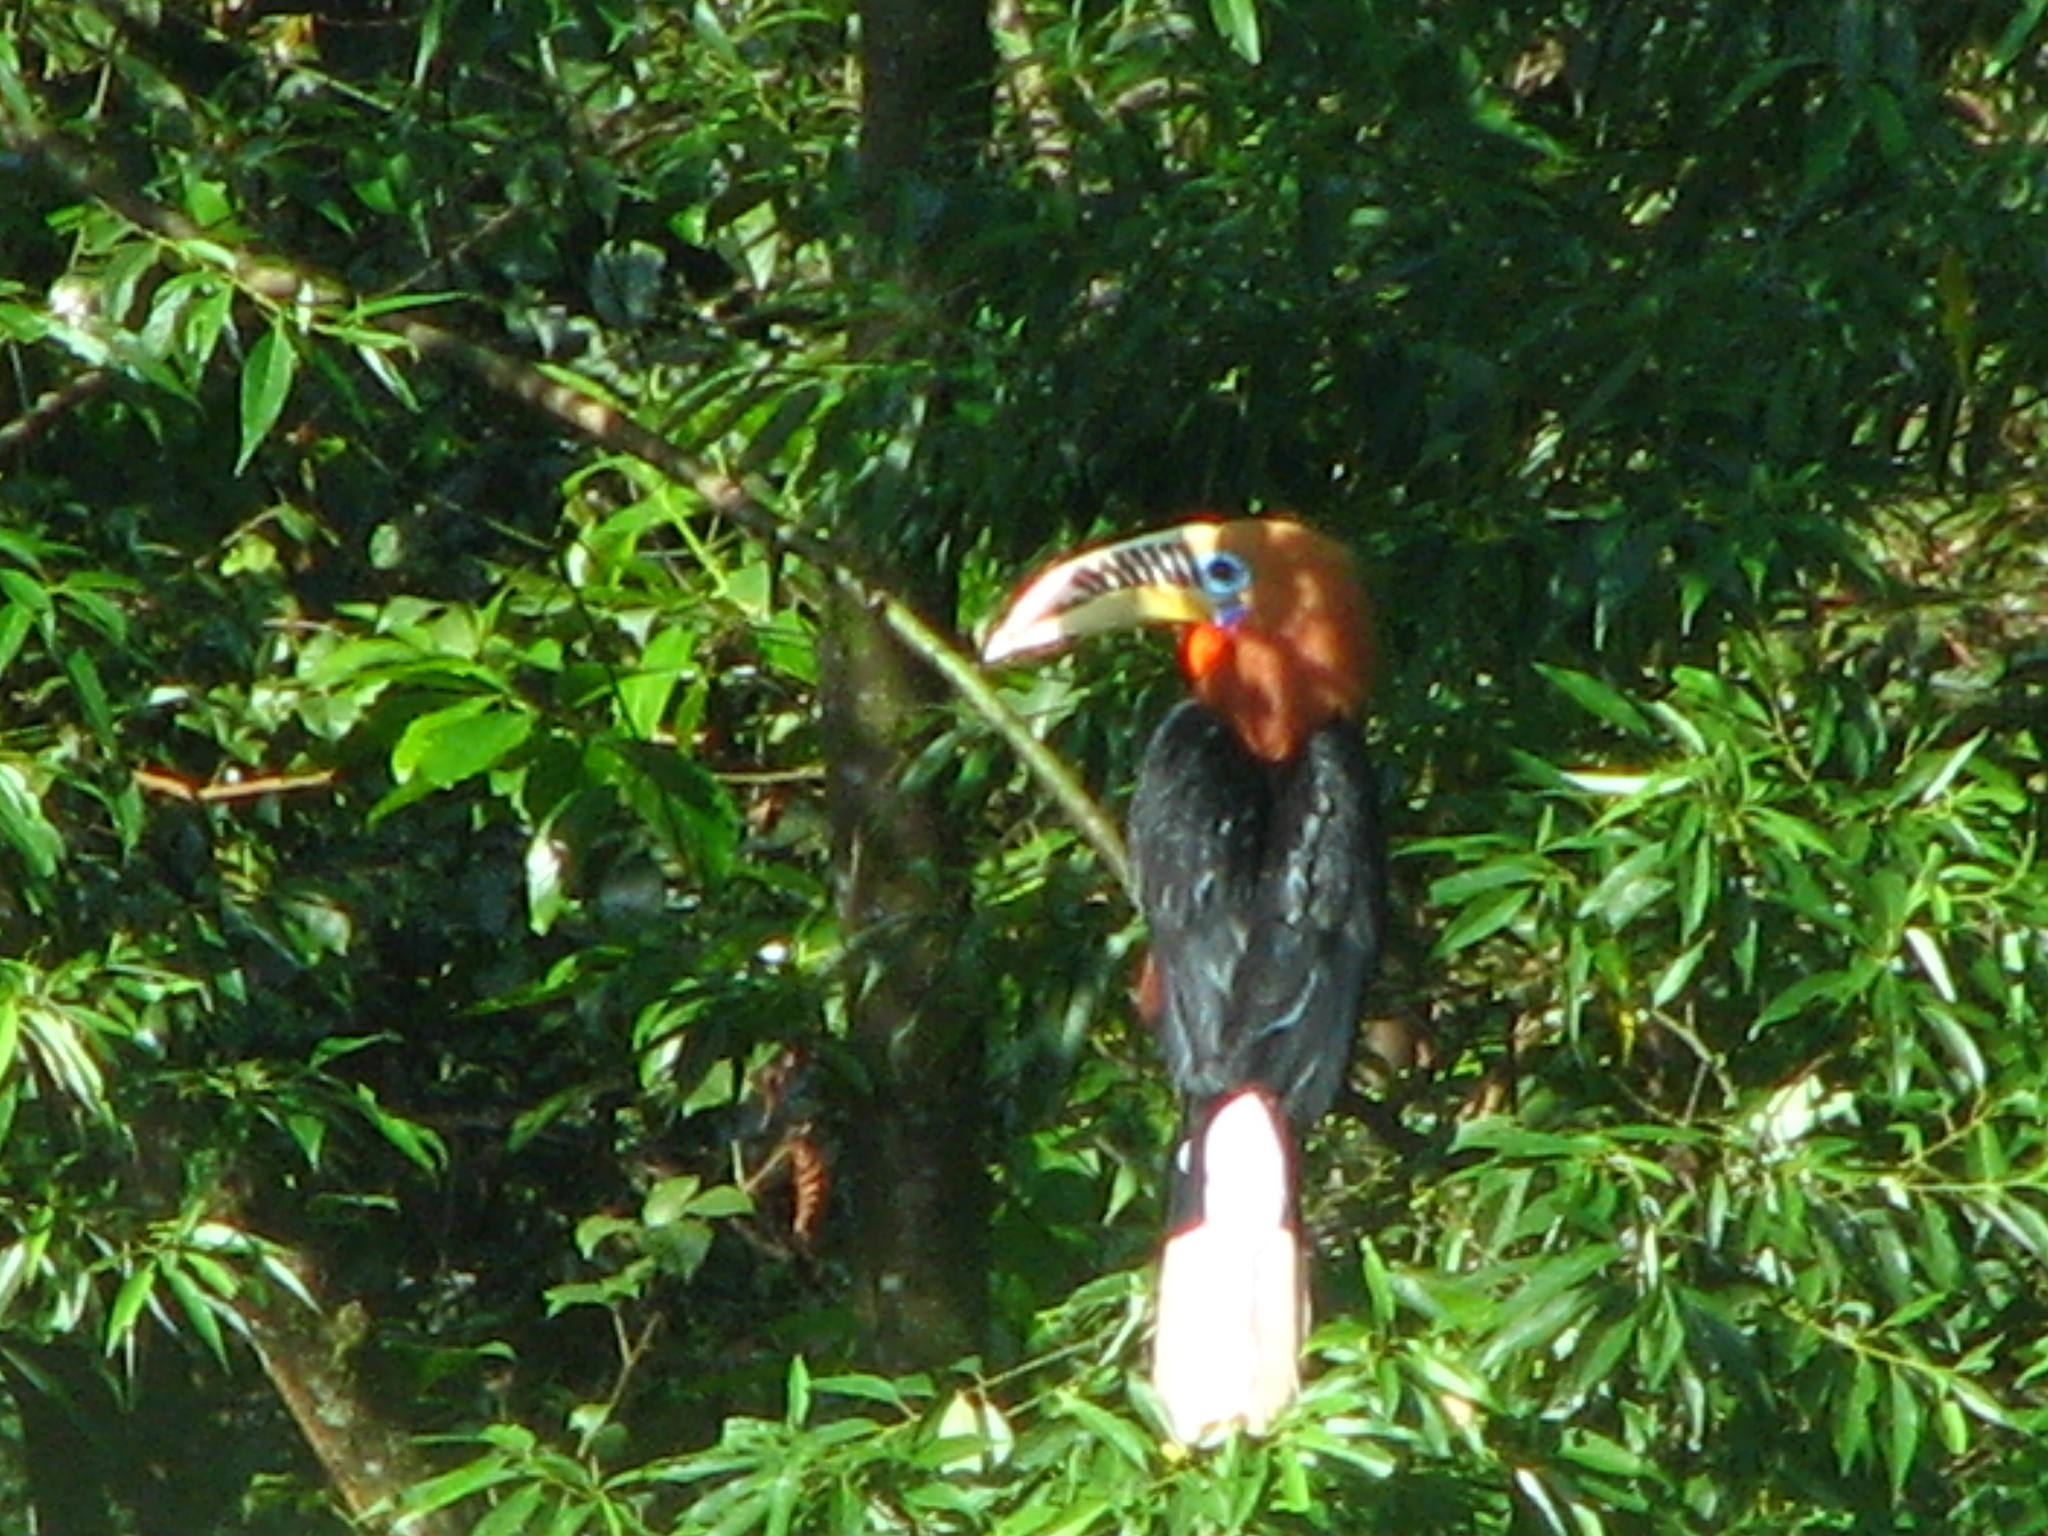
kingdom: Animalia
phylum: Chordata
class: Aves
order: Bucerotiformes
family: Bucerotidae
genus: Aceros
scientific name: Aceros nipalensis
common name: Rufous-necked hornbill
